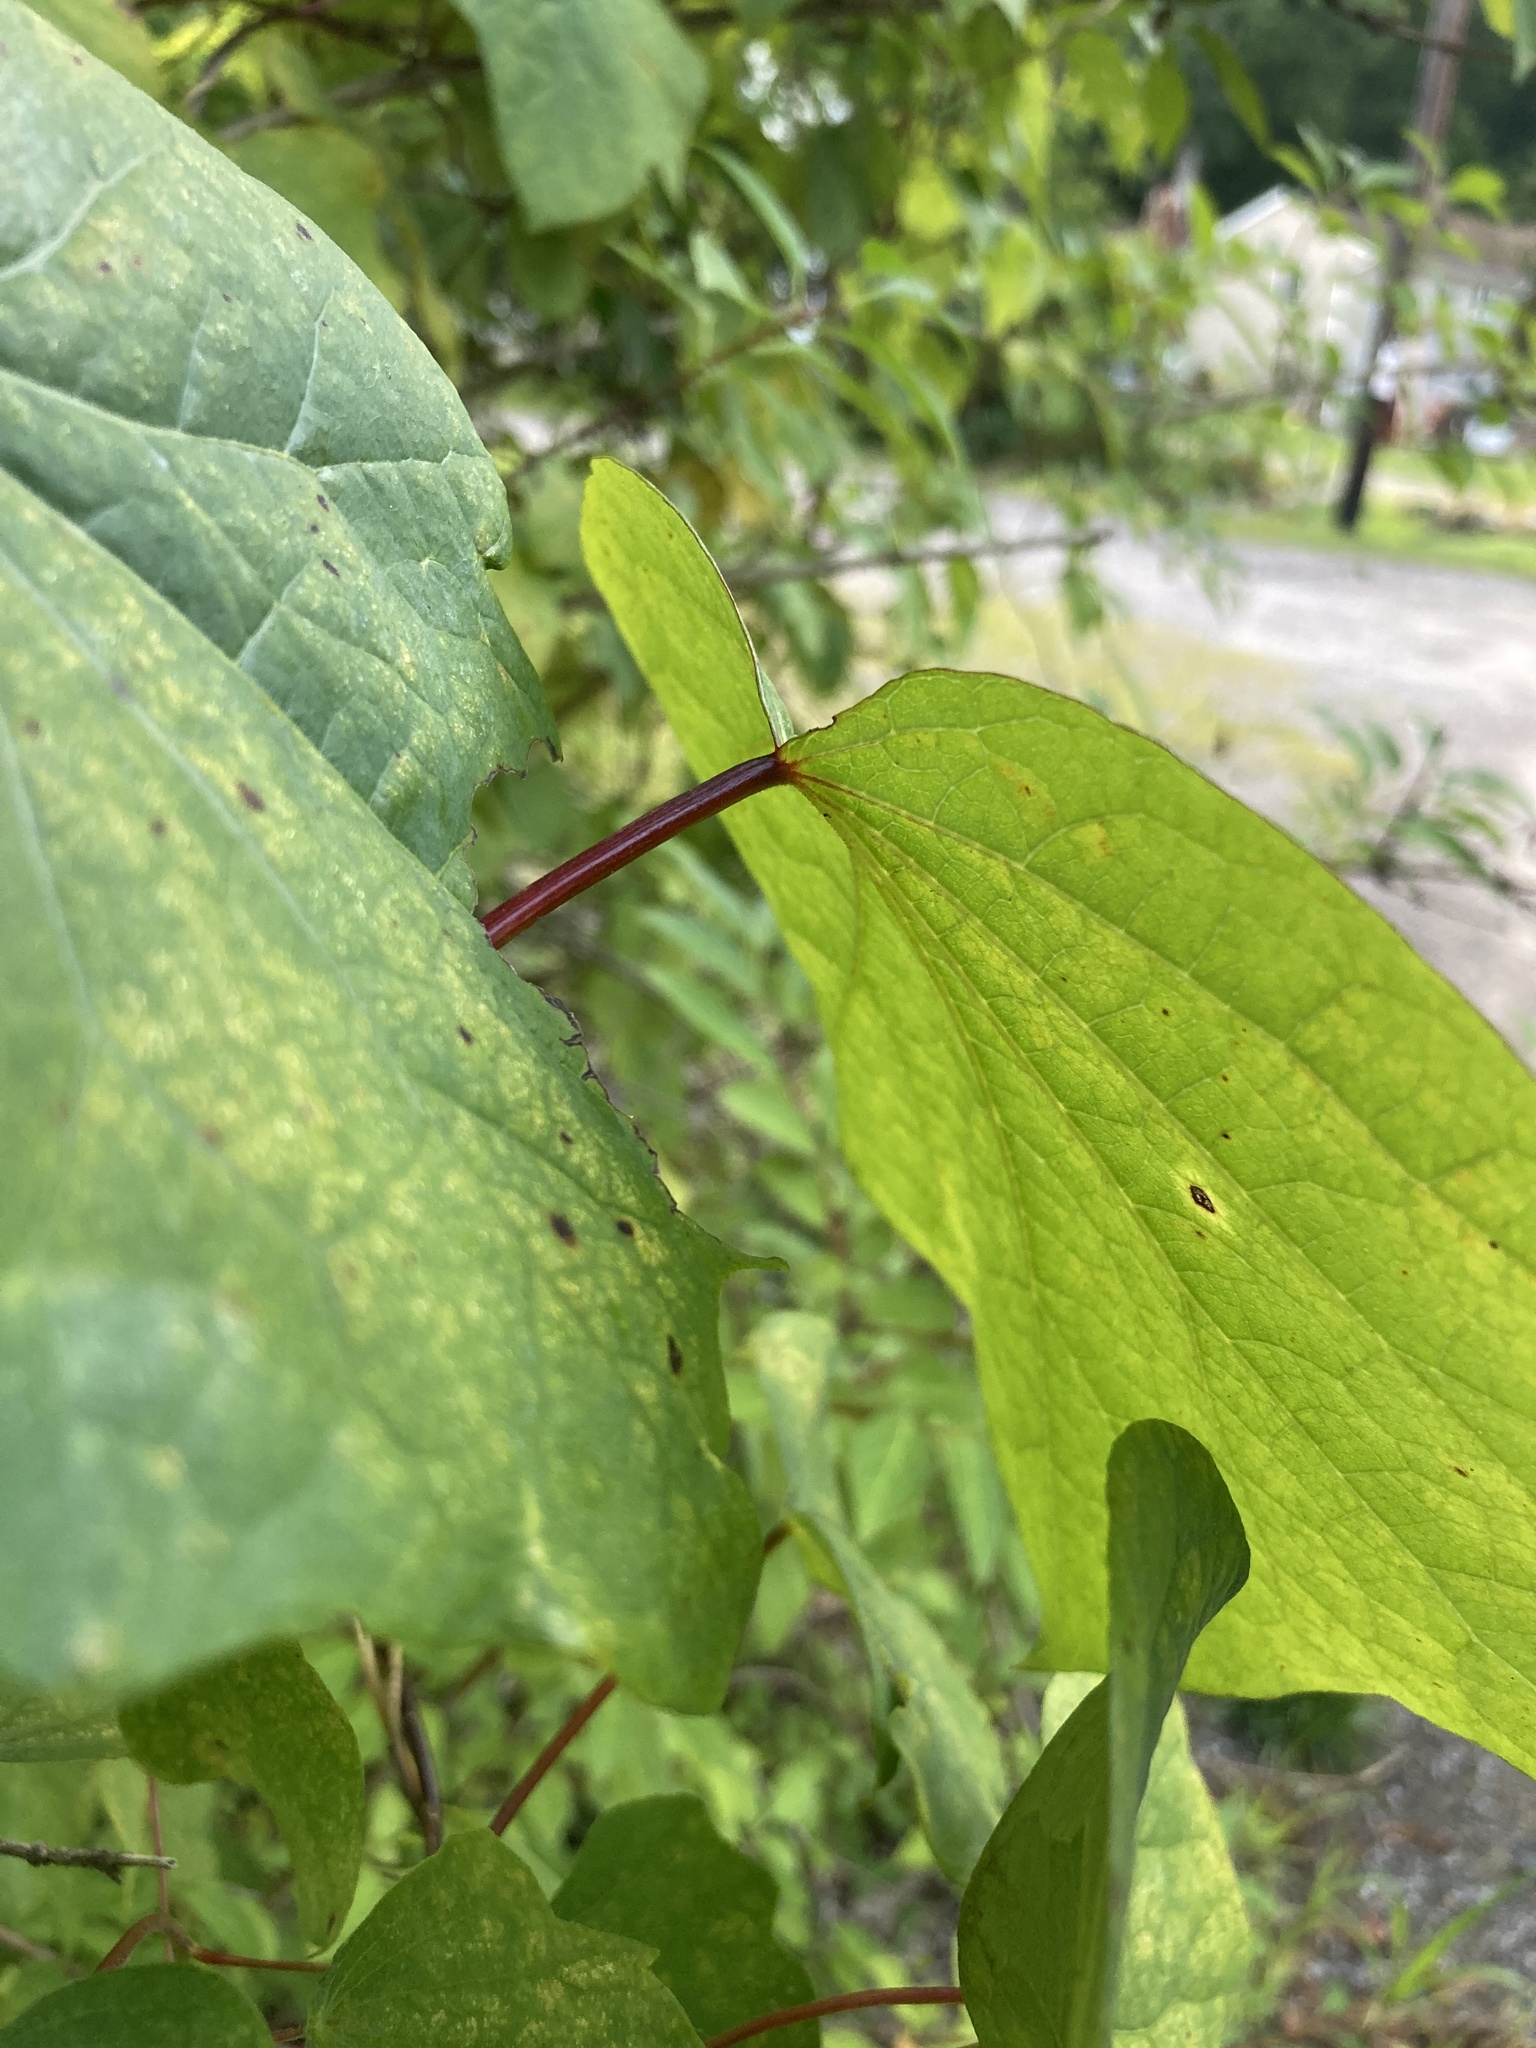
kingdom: Plantae
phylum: Tracheophyta
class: Magnoliopsida
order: Ranunculales
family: Menispermaceae
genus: Menispermum
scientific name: Menispermum canadense
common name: Moonseed
